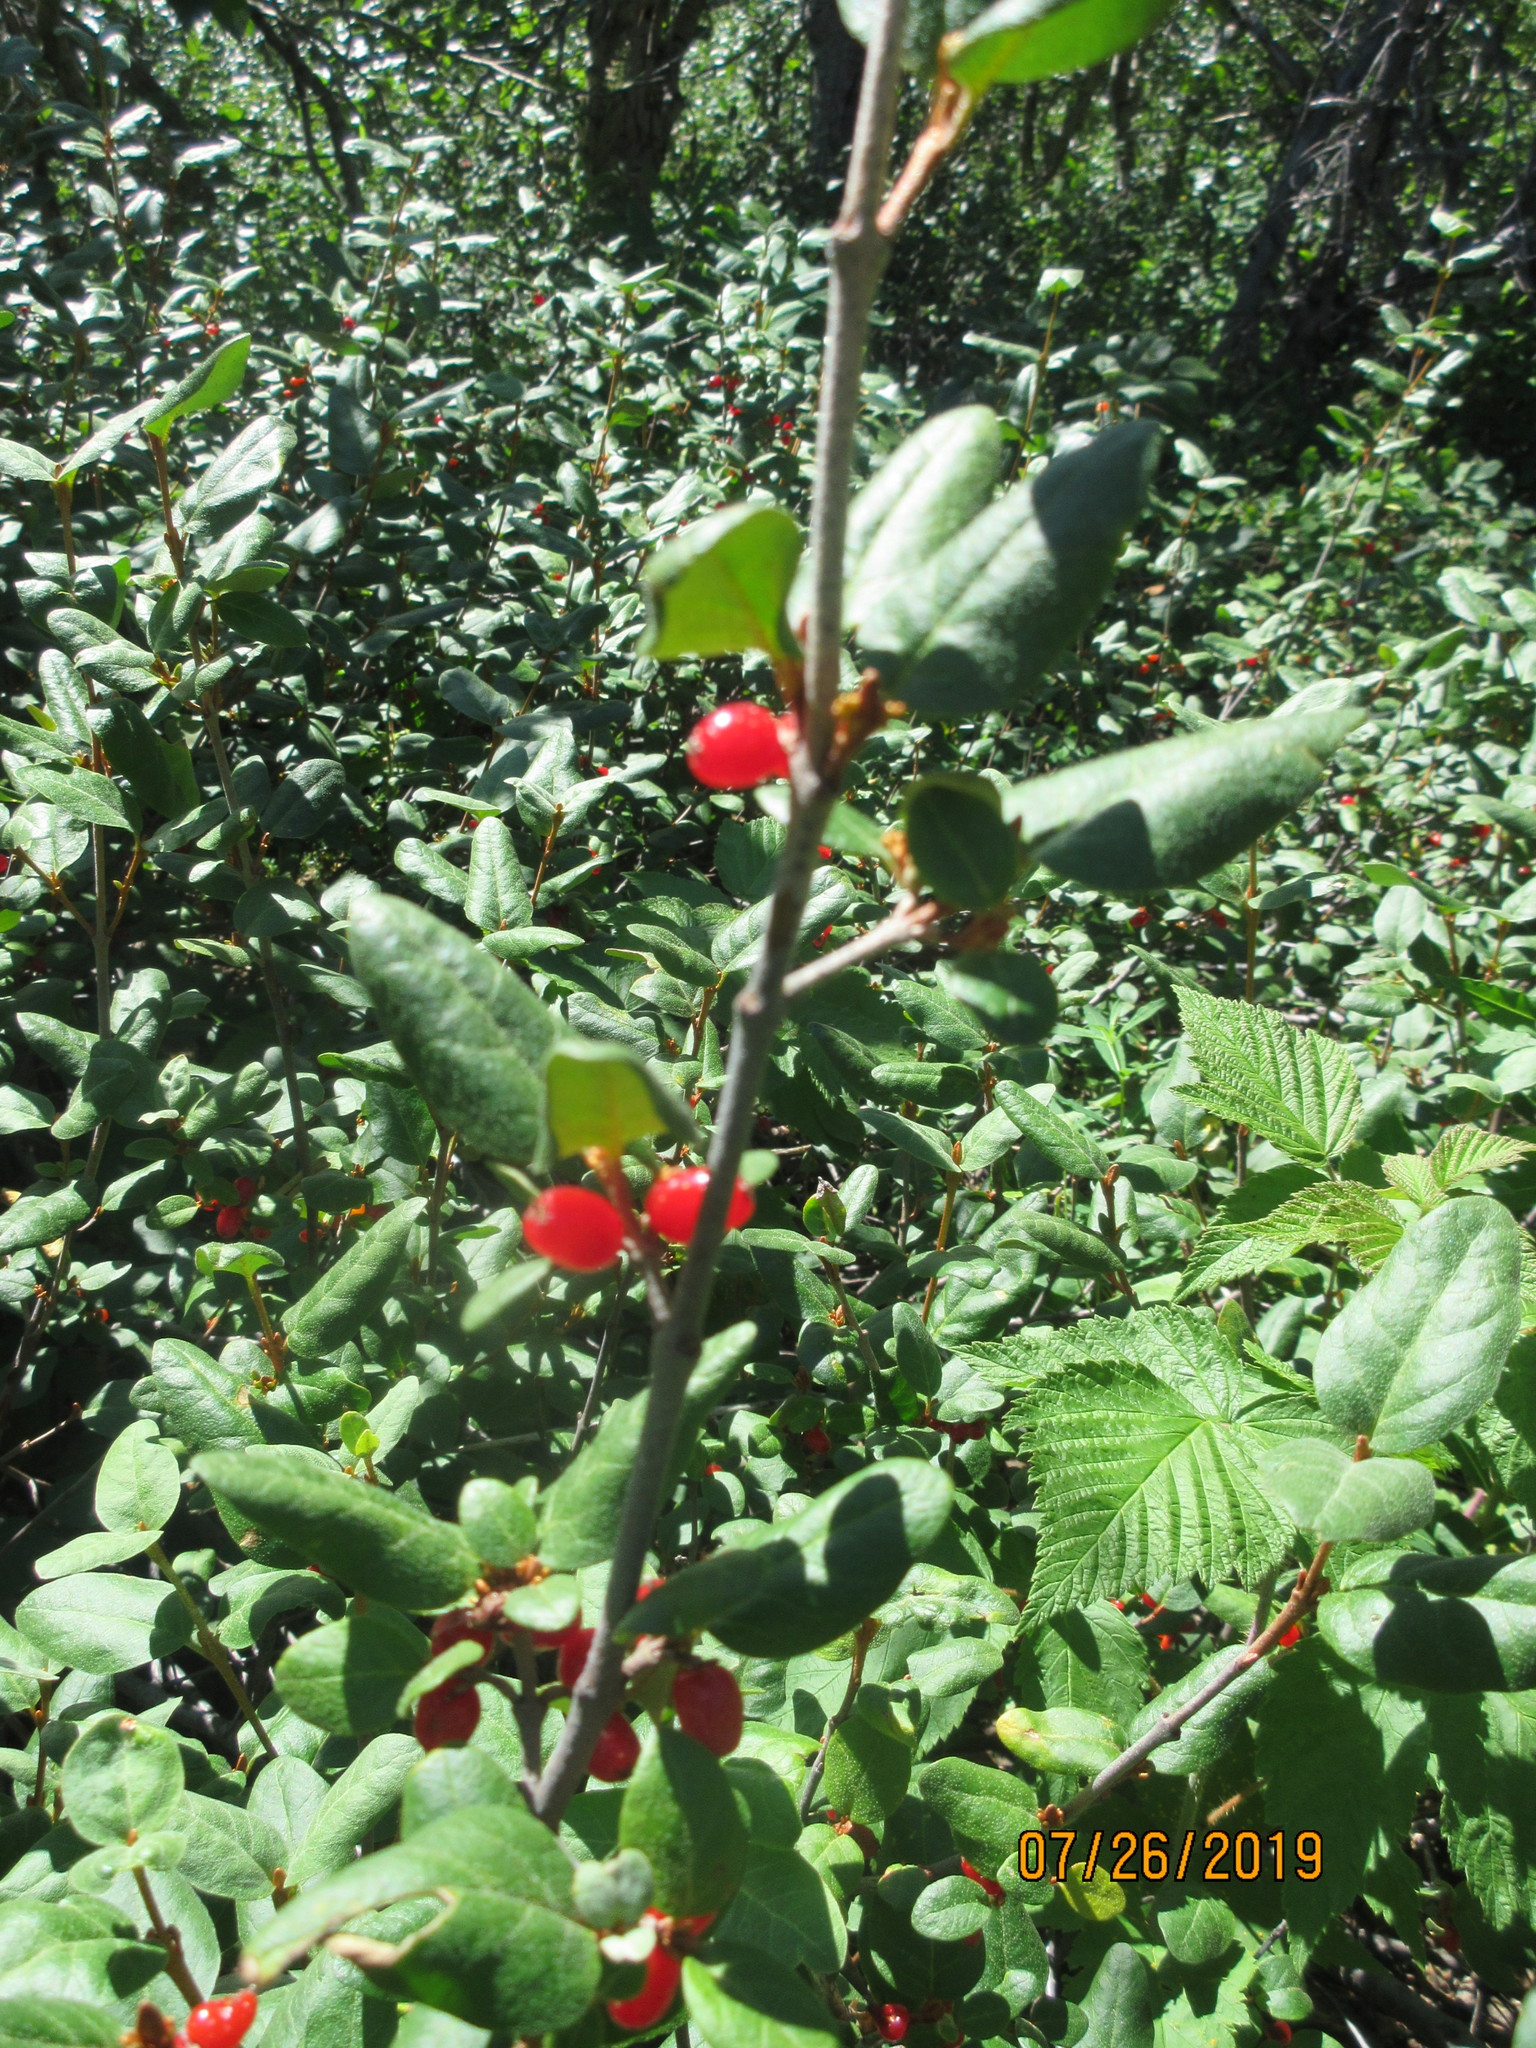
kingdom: Plantae
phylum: Tracheophyta
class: Magnoliopsida
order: Rosales
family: Elaeagnaceae
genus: Shepherdia
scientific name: Shepherdia canadensis
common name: Soapberry
